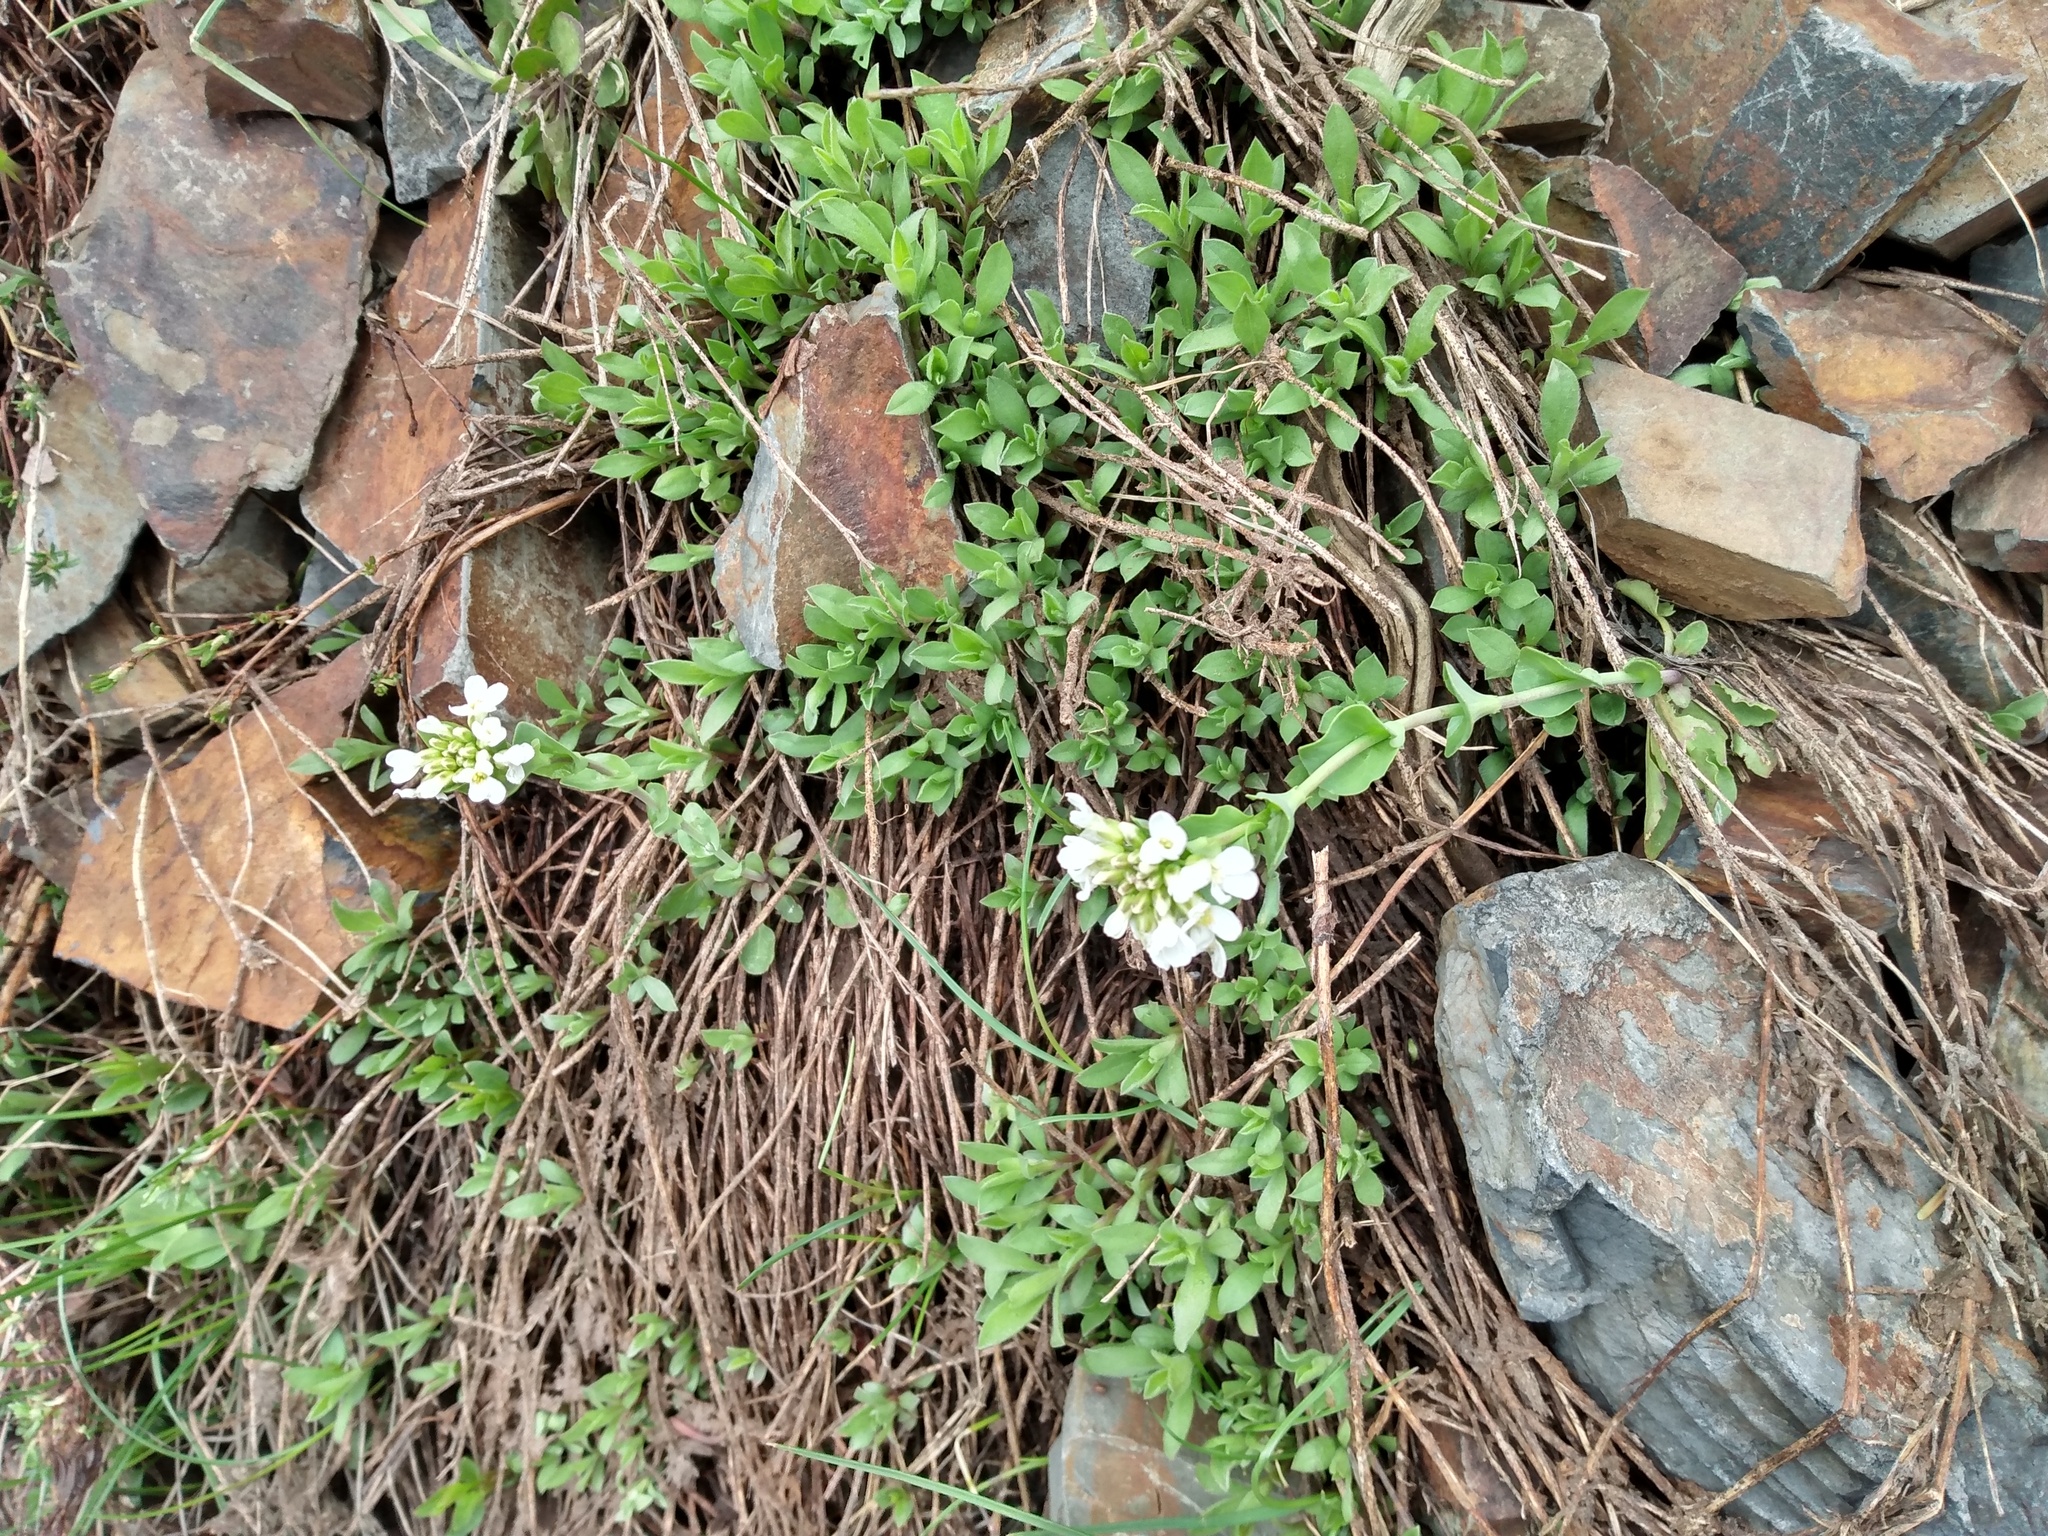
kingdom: Plantae
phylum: Tracheophyta
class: Magnoliopsida
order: Brassicales
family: Brassicaceae
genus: Noccaea
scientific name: Noccaea fendleri
